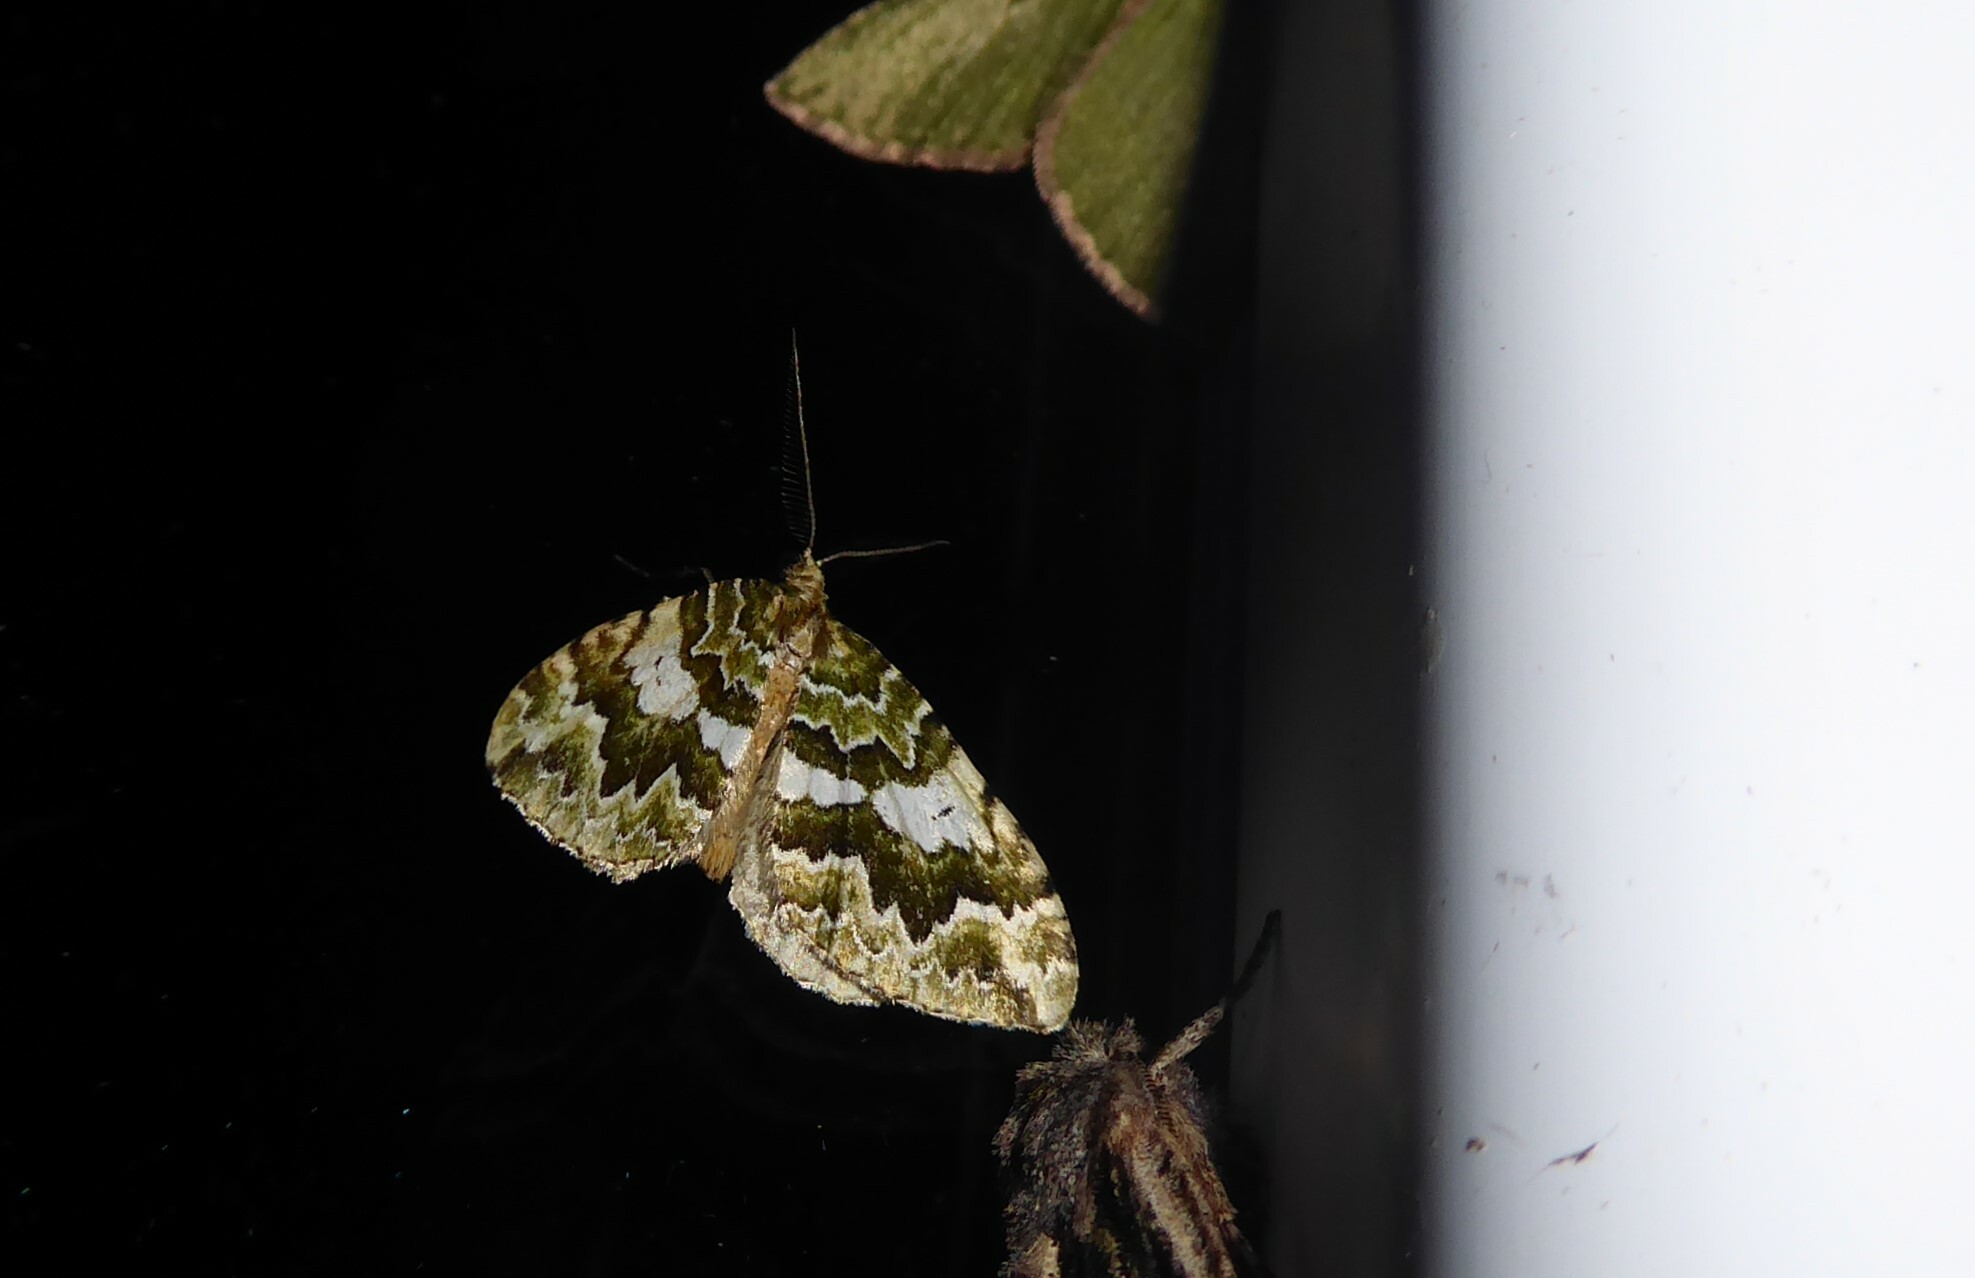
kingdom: Animalia
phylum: Arthropoda
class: Insecta
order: Lepidoptera
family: Geometridae
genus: Asaphodes
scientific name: Asaphodes beata
